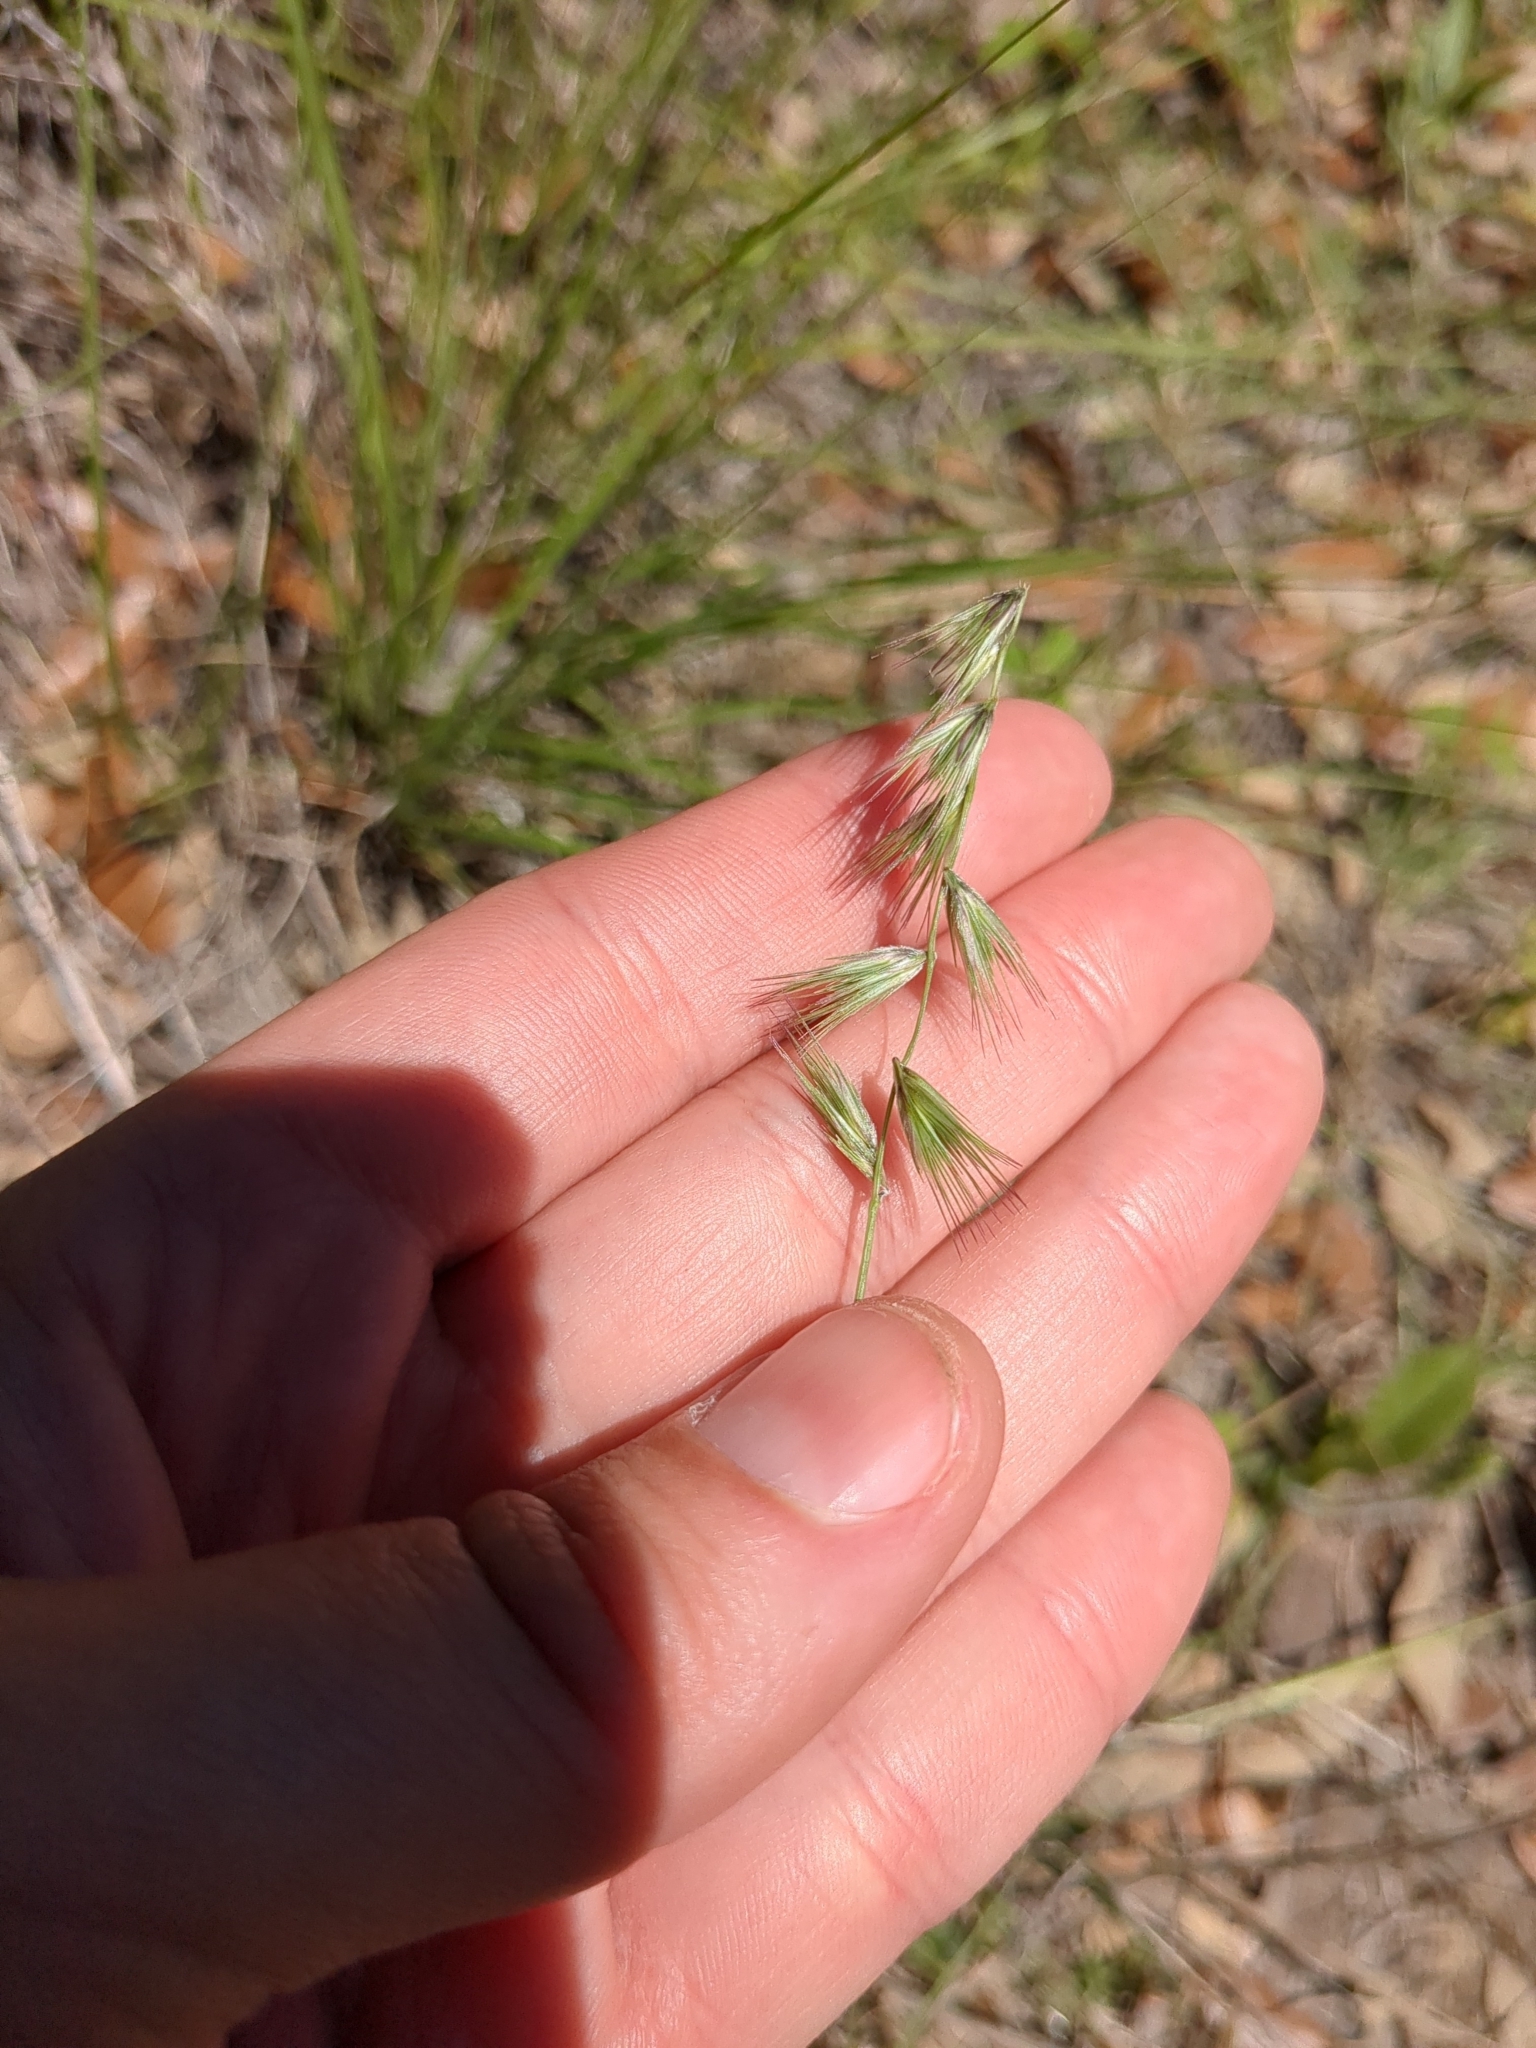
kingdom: Plantae
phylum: Tracheophyta
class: Liliopsida
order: Poales
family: Poaceae
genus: Bouteloua
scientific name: Bouteloua rigidiseta
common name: Texas grama
